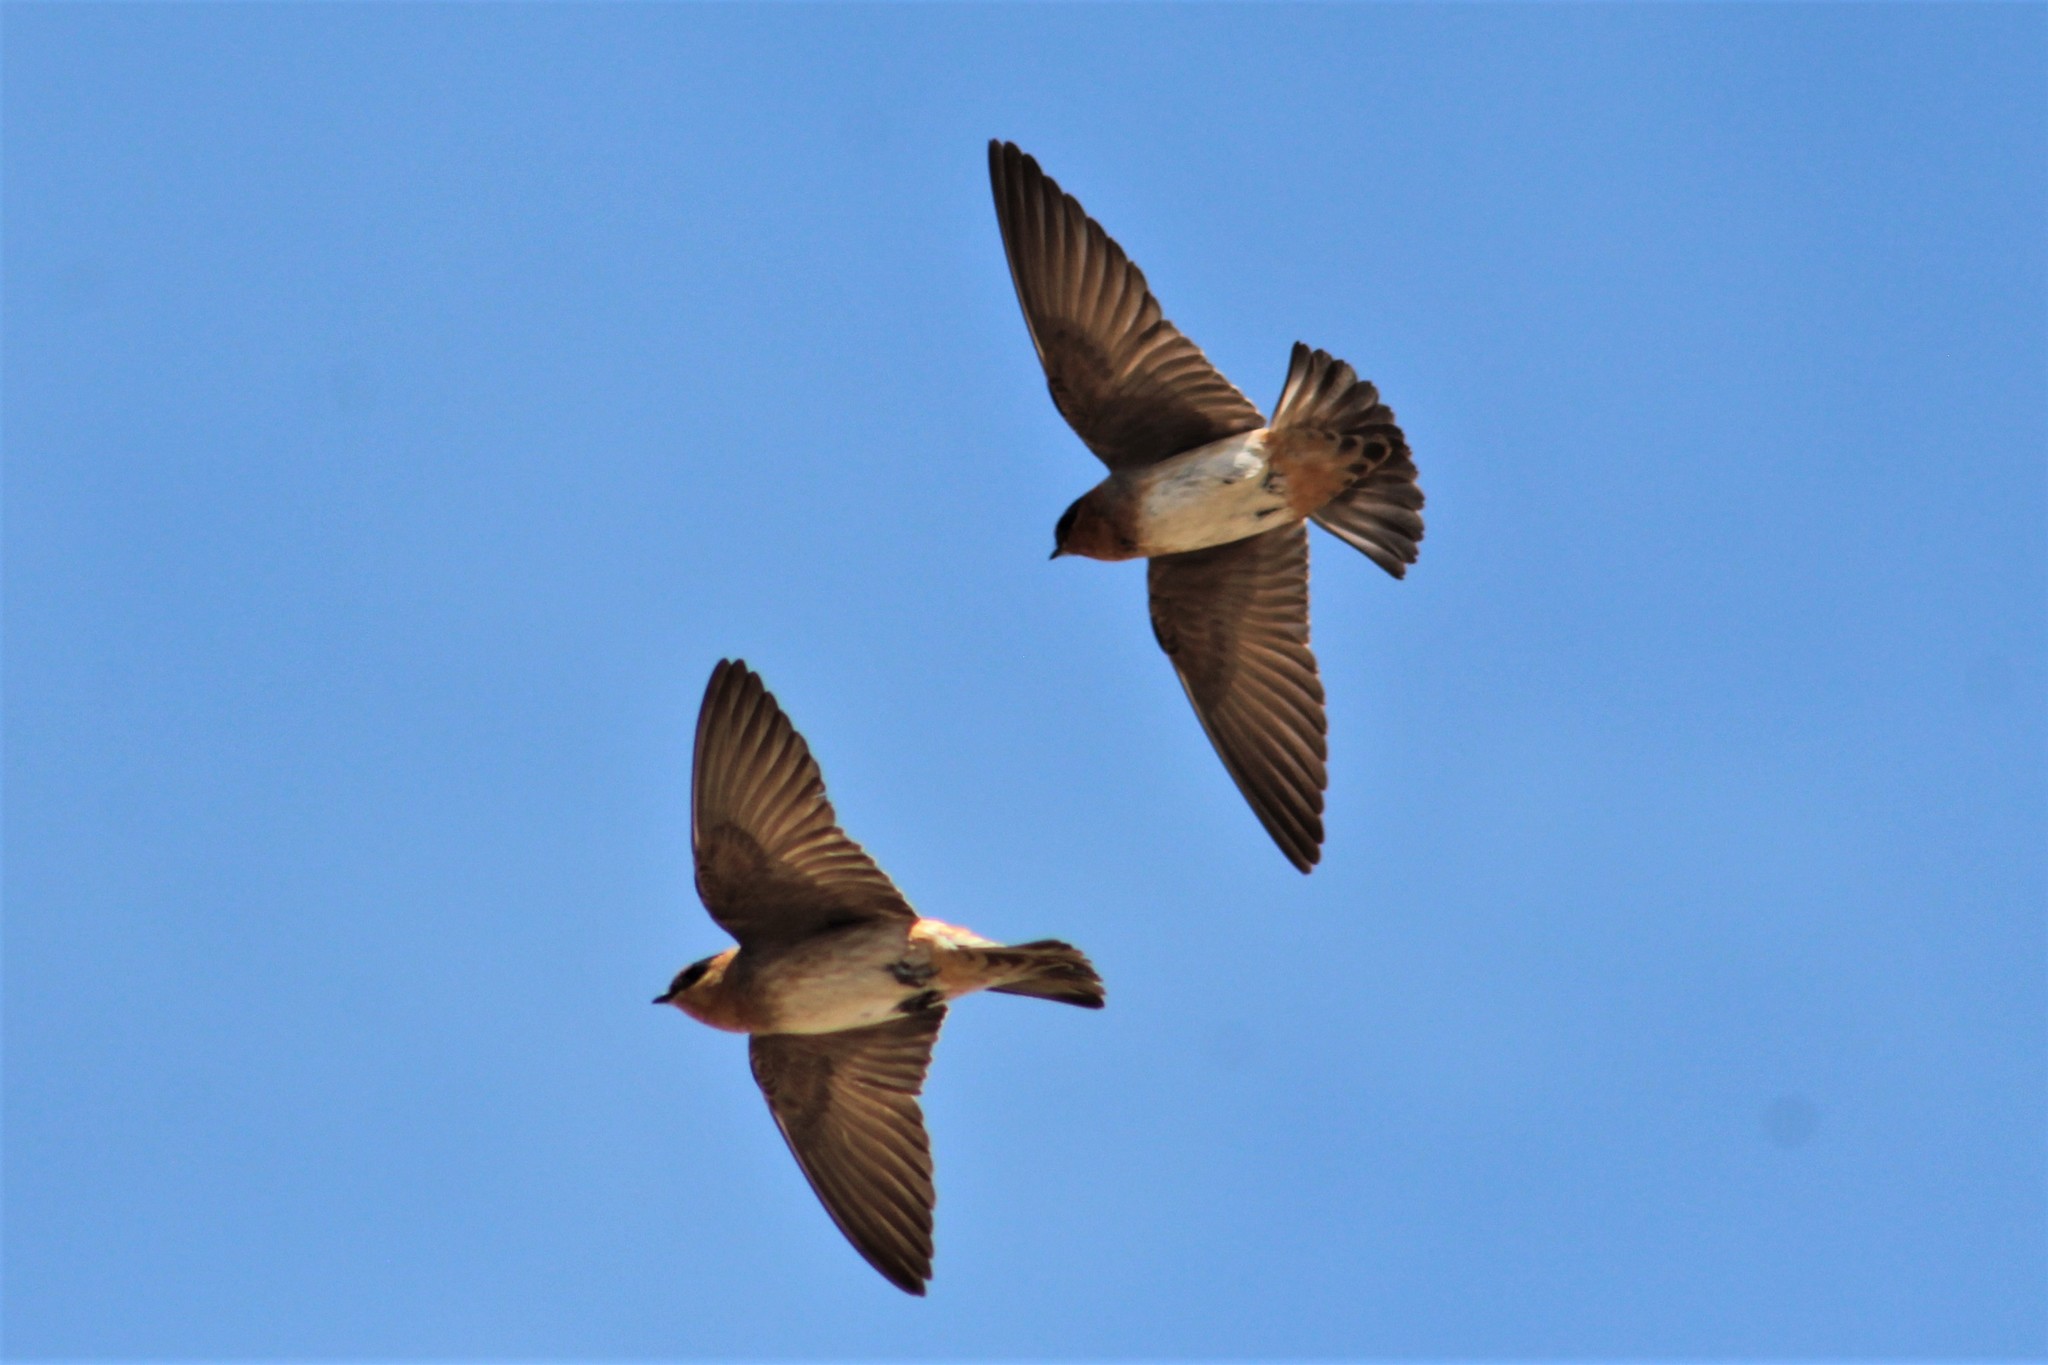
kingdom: Animalia
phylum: Chordata
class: Aves
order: Passeriformes
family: Hirundinidae
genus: Petrochelidon
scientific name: Petrochelidon fulva
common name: Cave swallow
